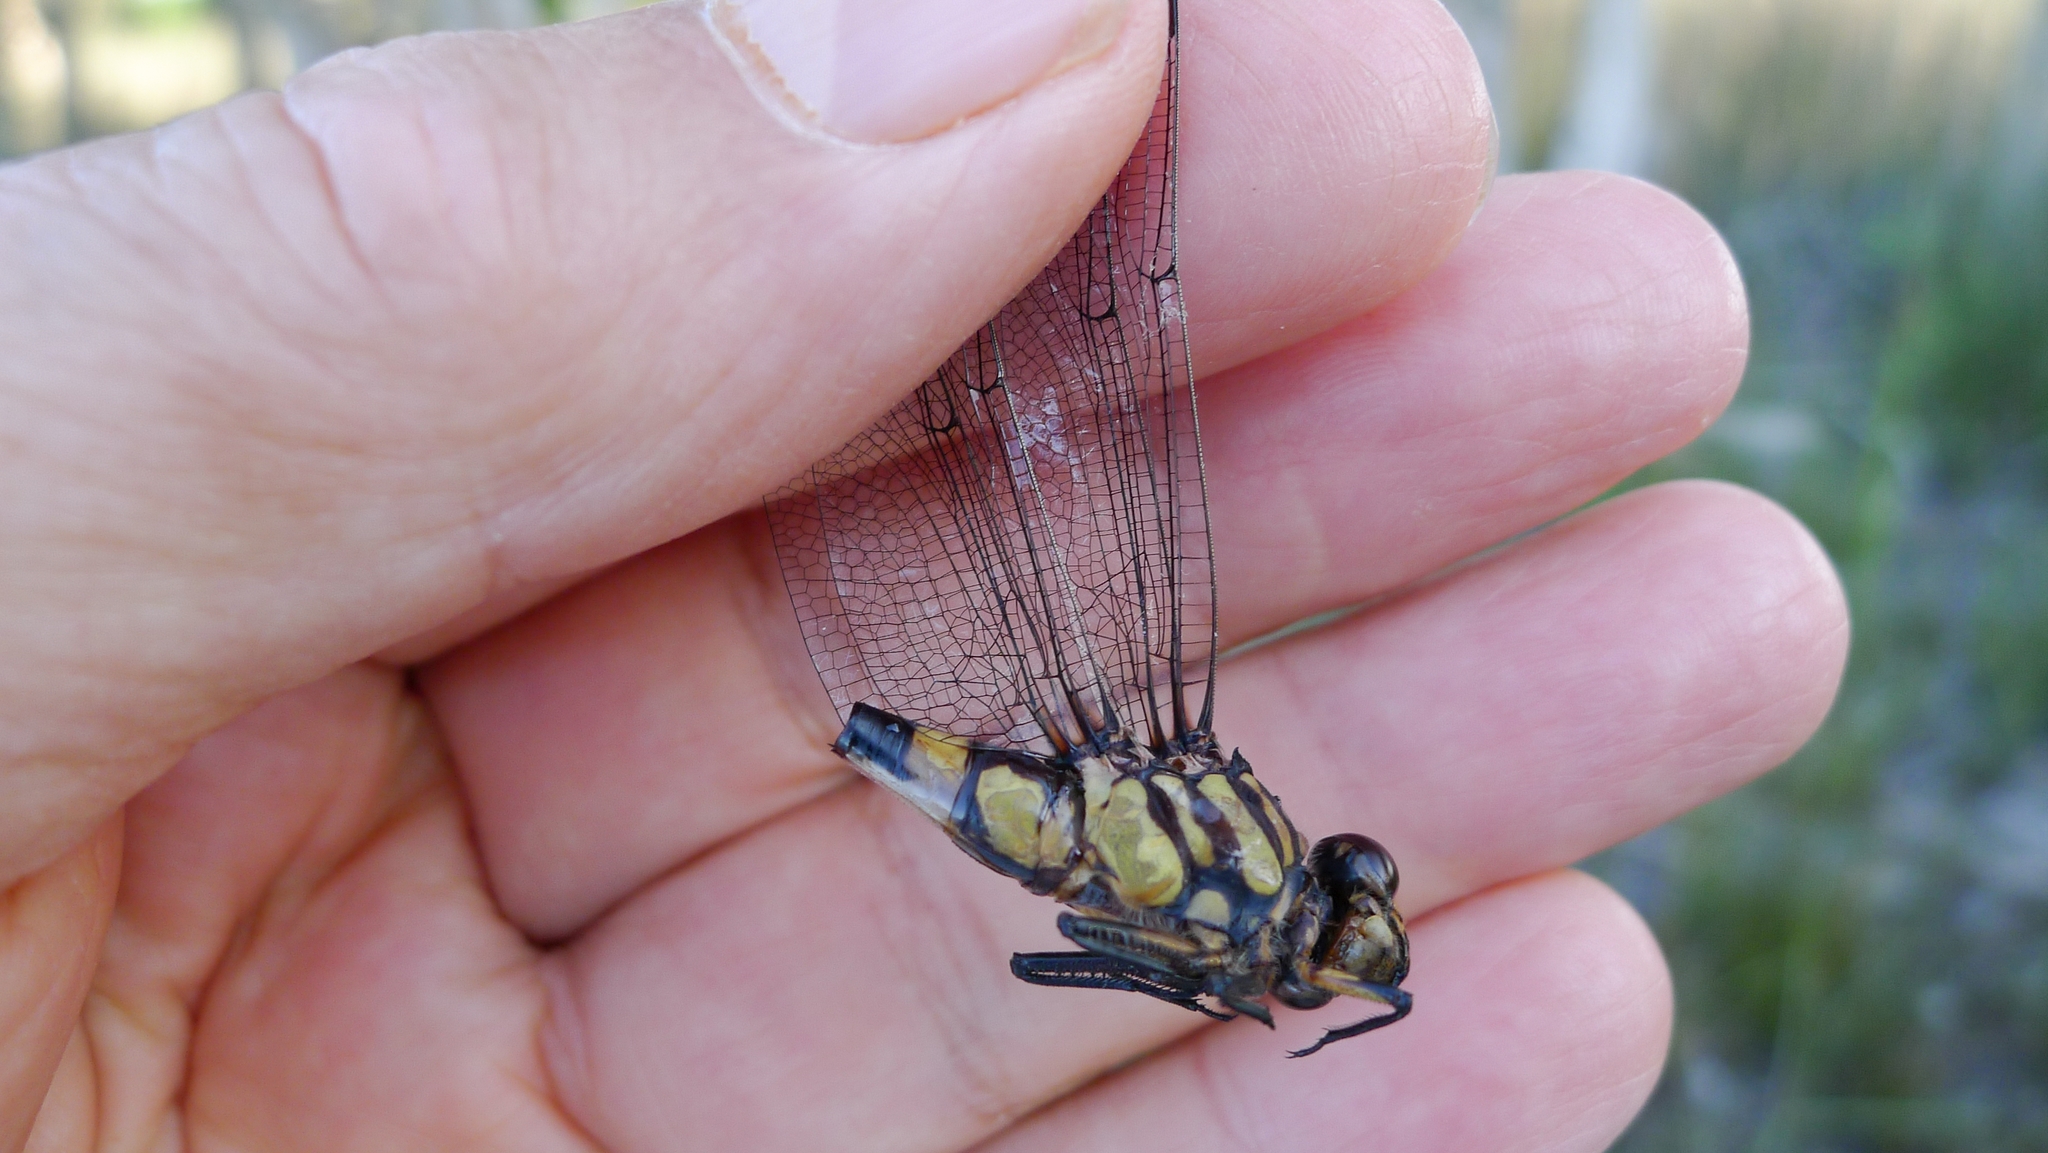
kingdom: Animalia
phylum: Arthropoda
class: Insecta
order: Odonata
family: Gomphidae
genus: Ictinogomphus
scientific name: Ictinogomphus australis
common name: Australian tiger
